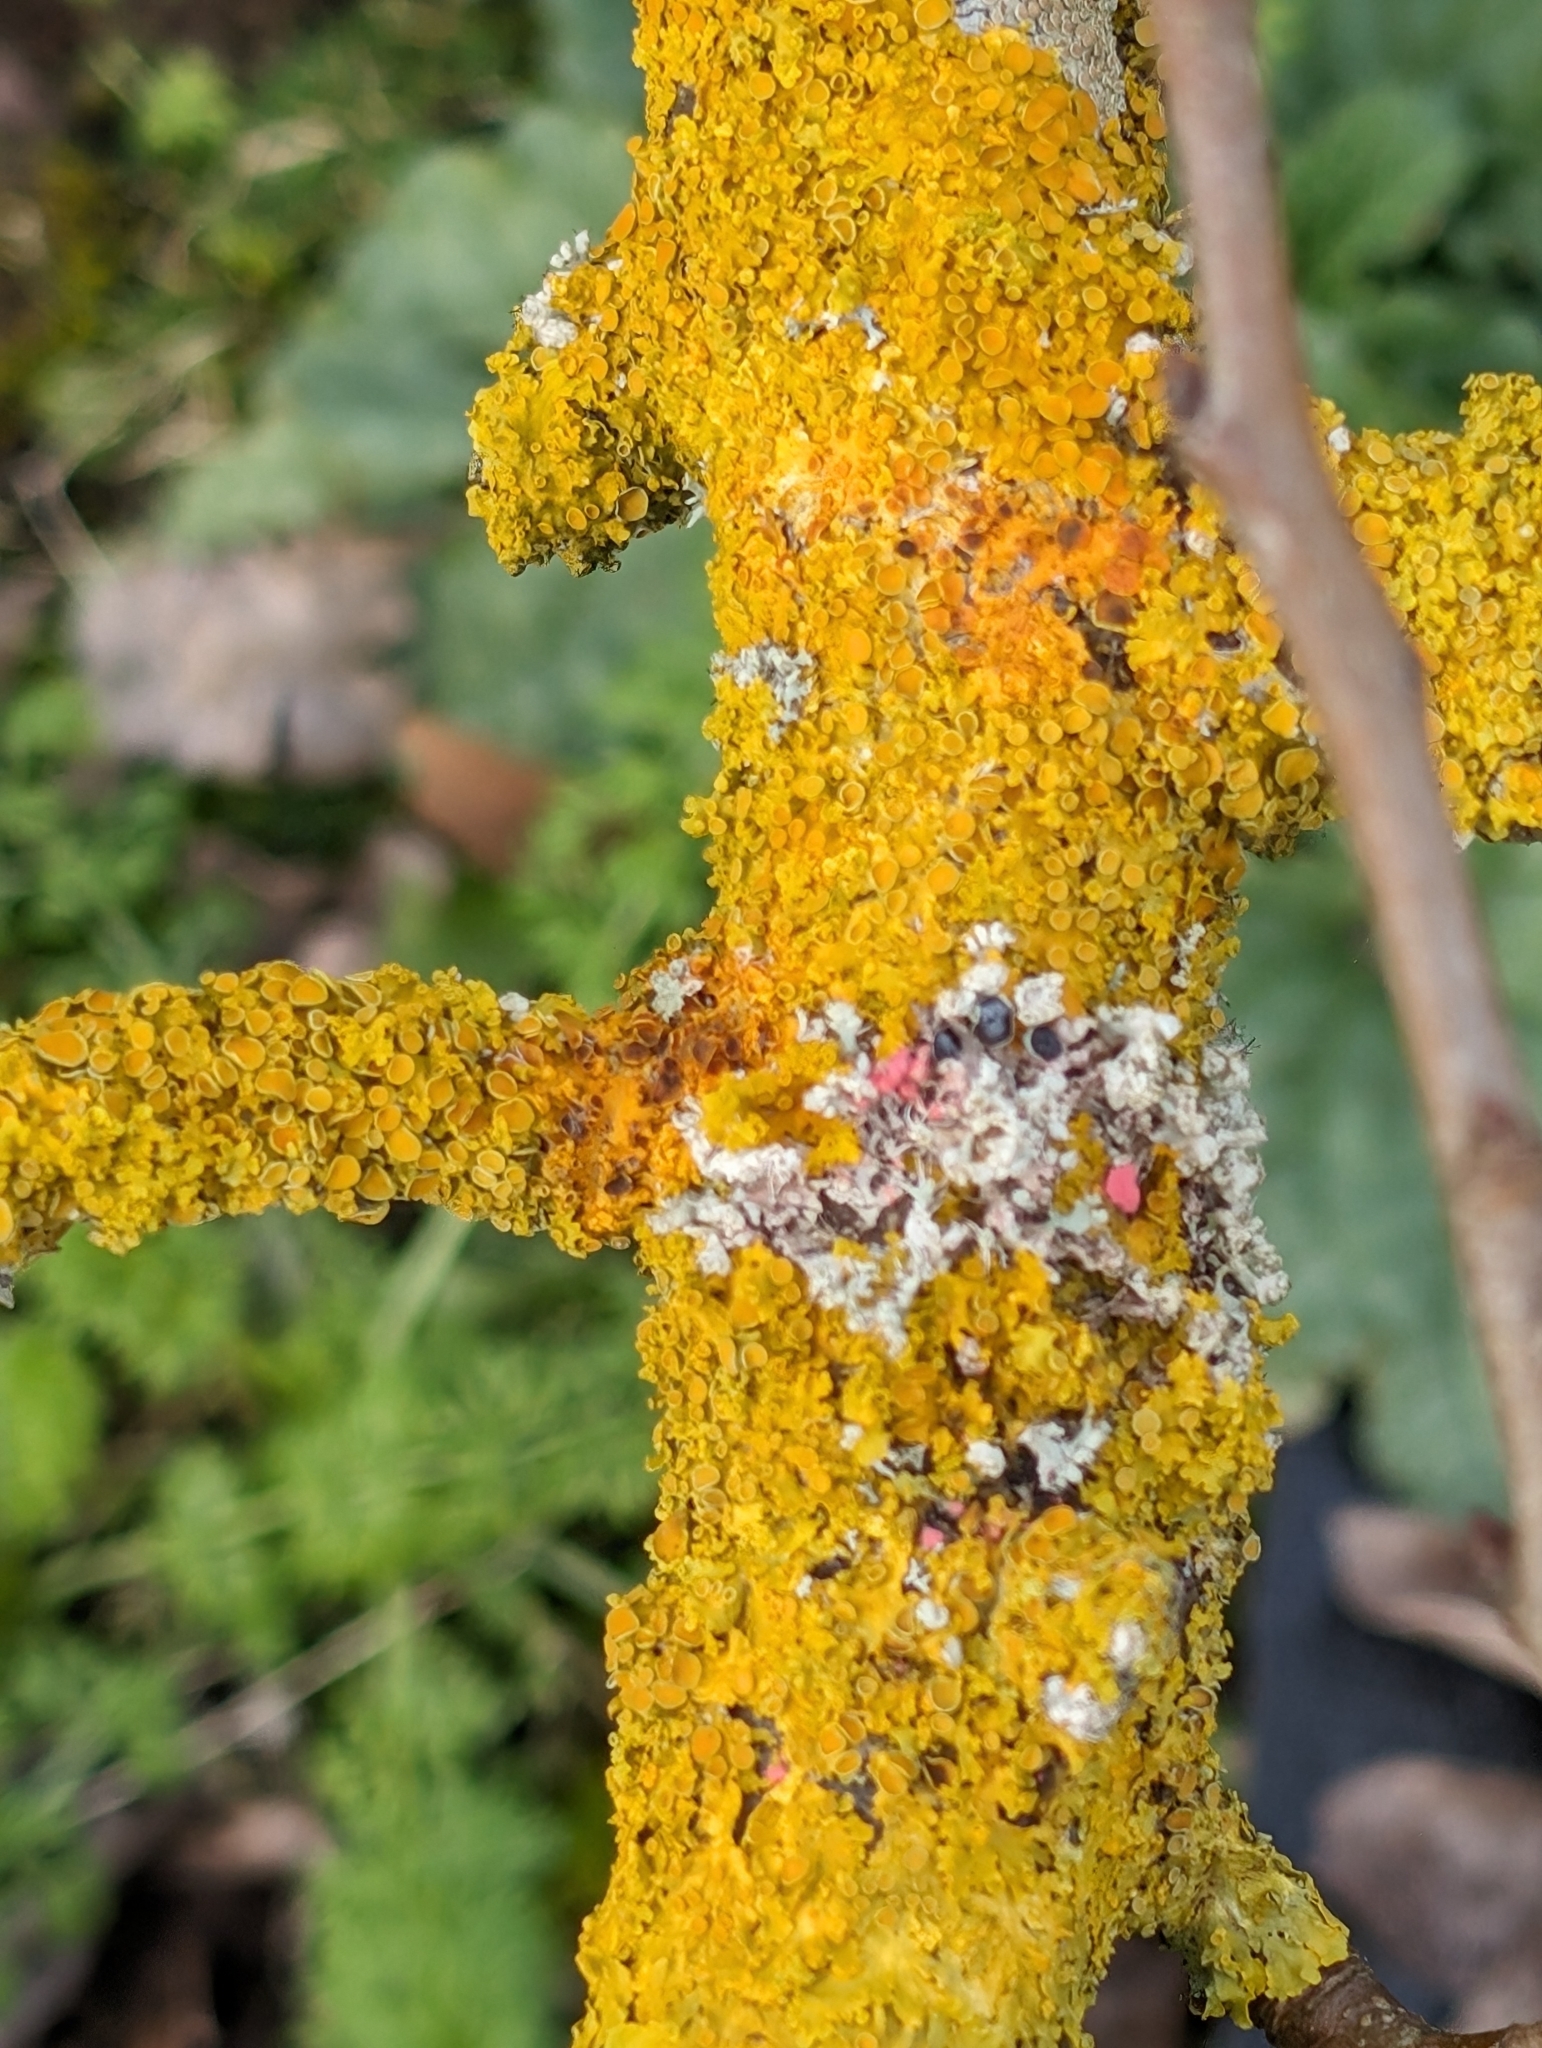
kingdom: Fungi
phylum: Ascomycota
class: Lecanoromycetes
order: Teloschistales
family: Teloschistaceae
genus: Xanthoria
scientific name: Xanthoria parietina
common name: Common orange lichen
